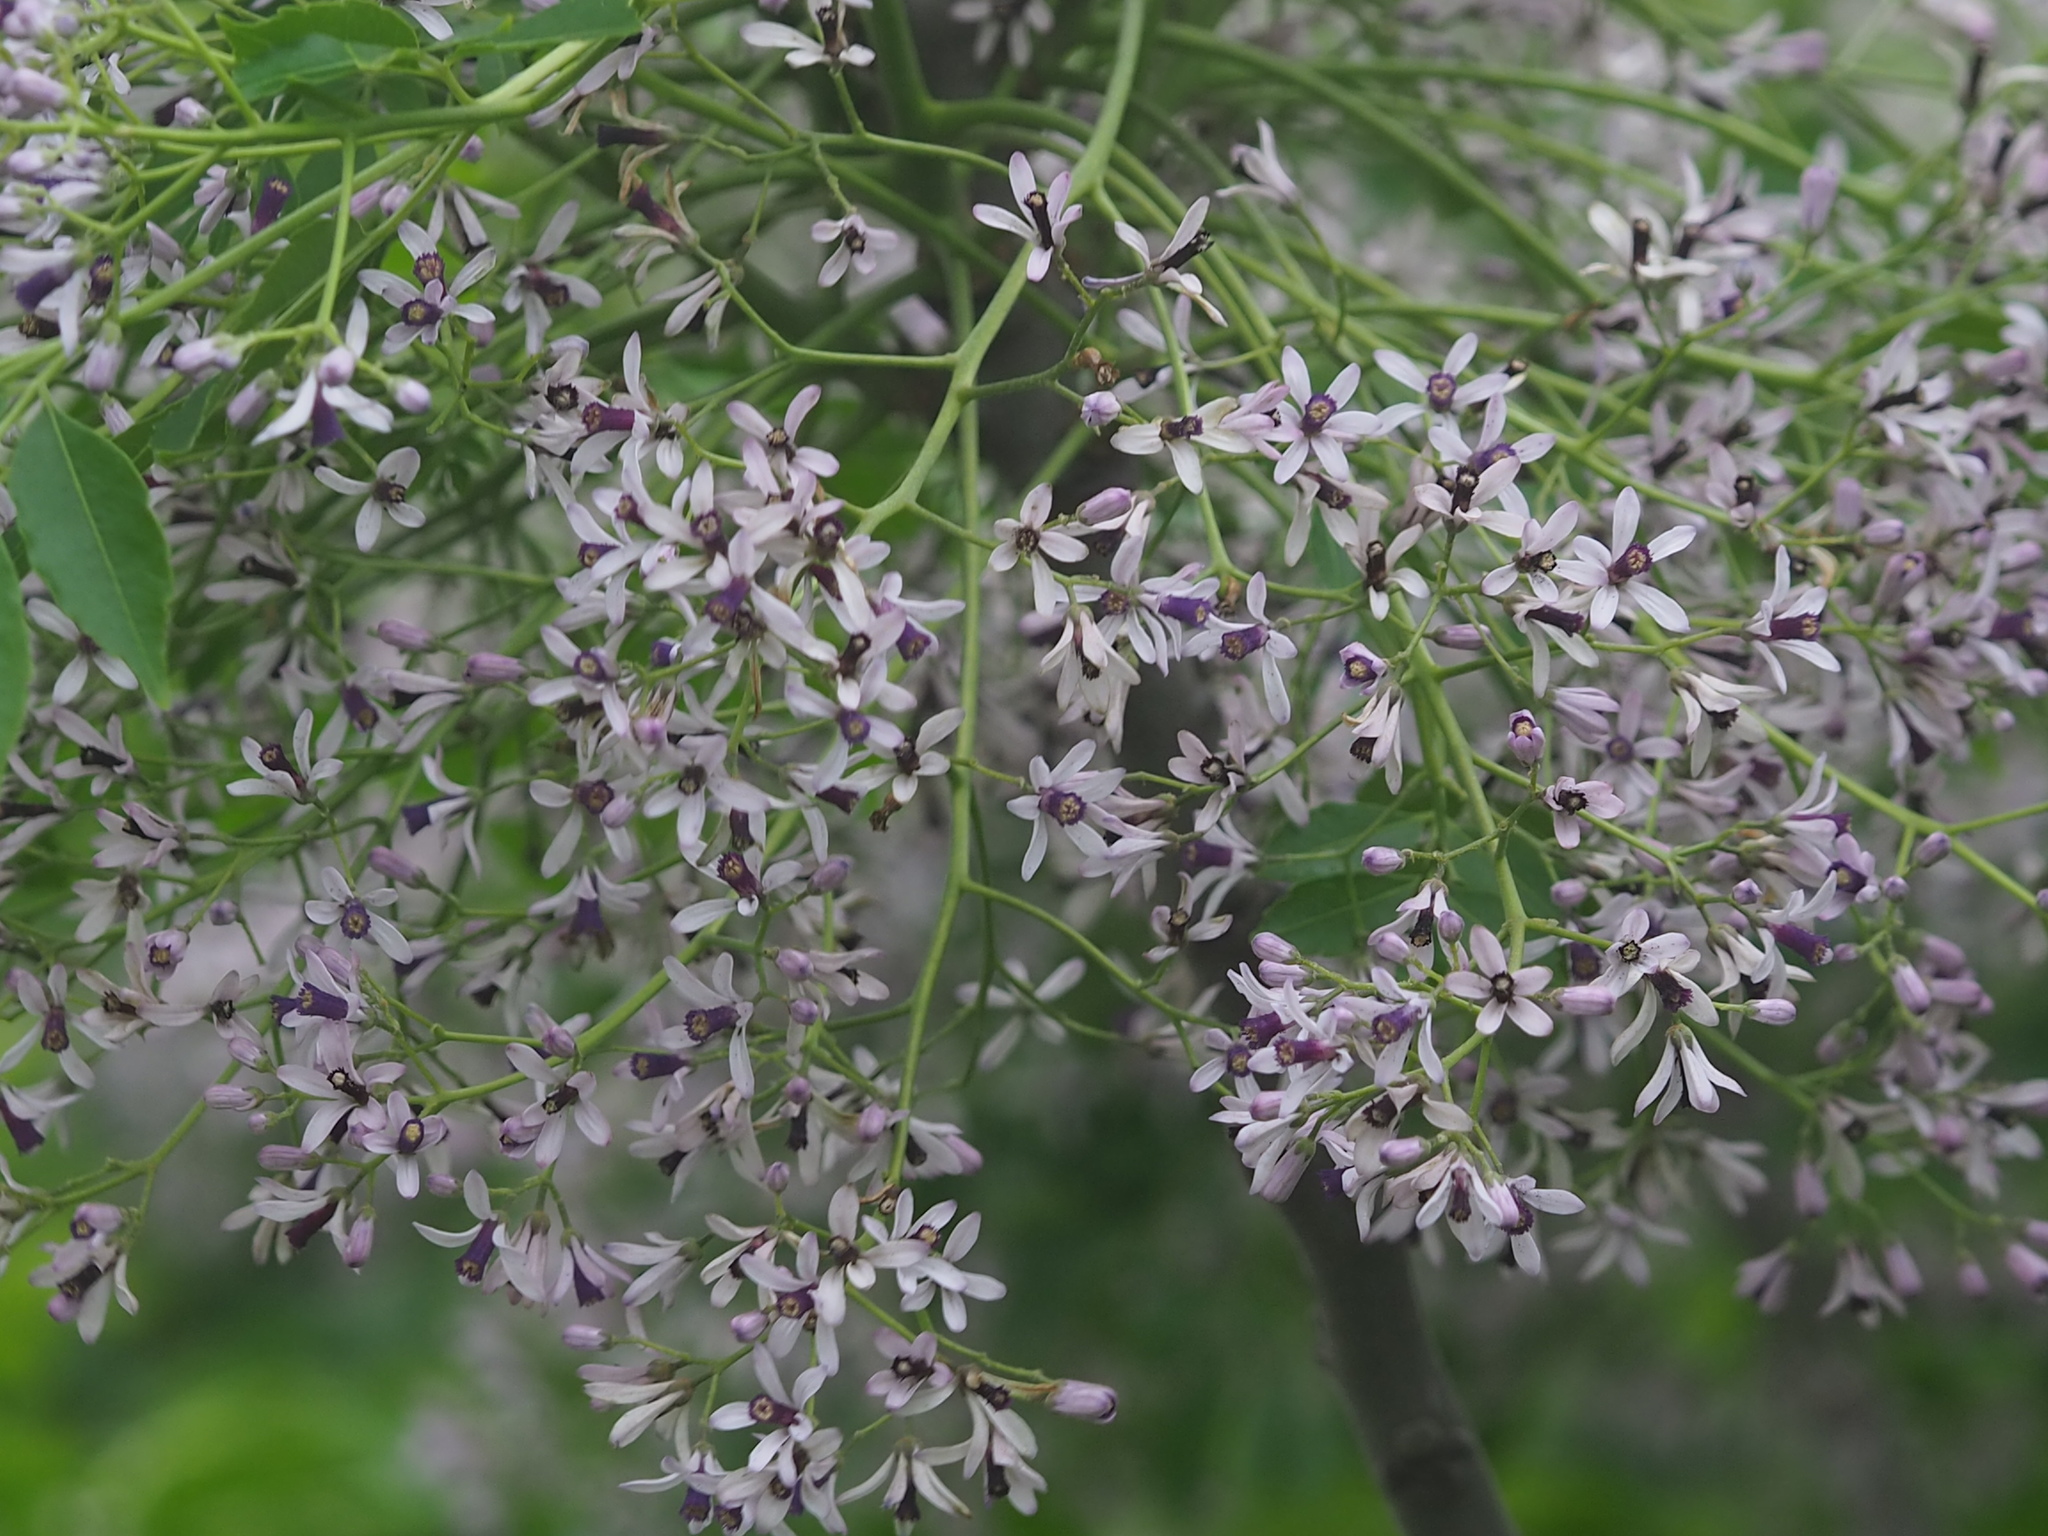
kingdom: Plantae
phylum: Tracheophyta
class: Magnoliopsida
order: Sapindales
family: Meliaceae
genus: Melia
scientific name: Melia azedarach
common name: Chinaberrytree
